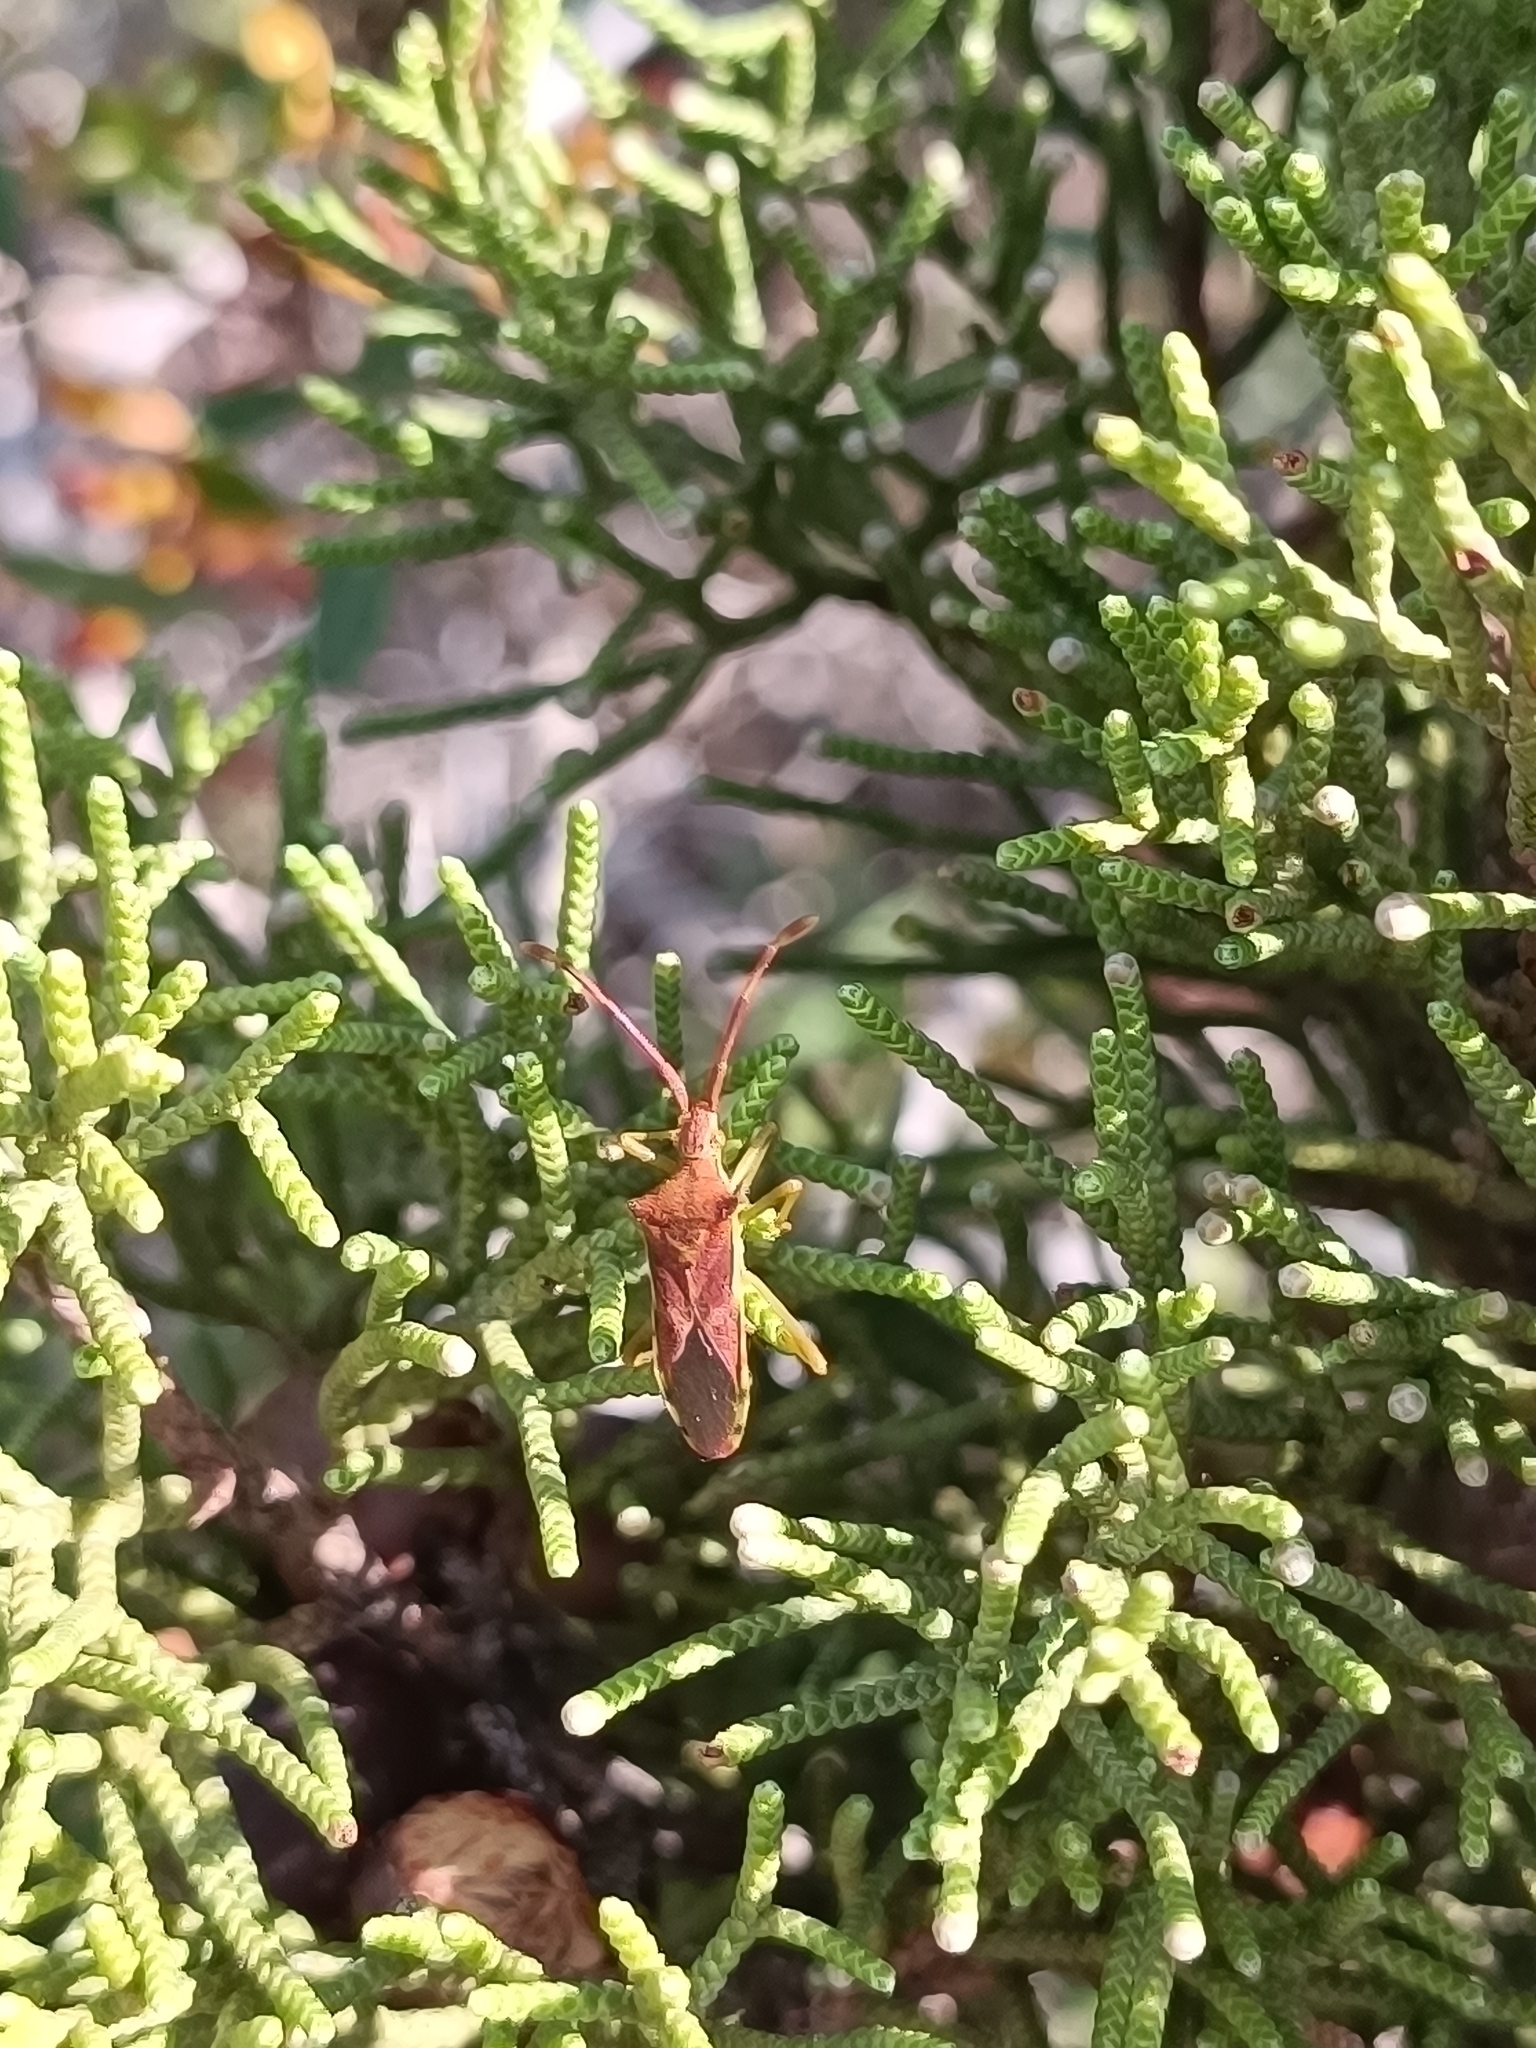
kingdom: Animalia
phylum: Arthropoda
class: Insecta
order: Hemiptera
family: Coreidae
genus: Gonocerus
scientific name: Gonocerus juniperi
